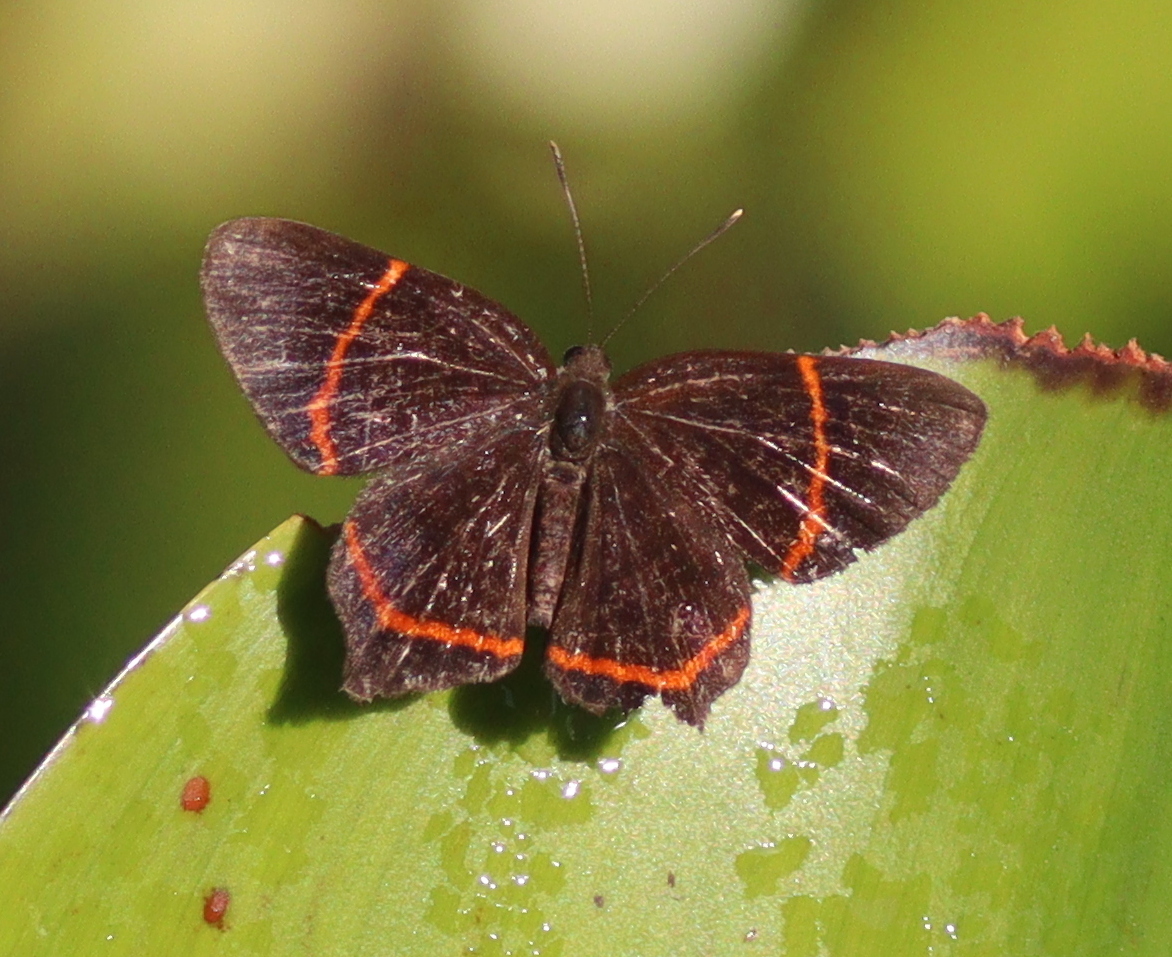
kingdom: Animalia
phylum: Arthropoda
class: Insecta
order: Lepidoptera
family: Riodinidae
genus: Riodina
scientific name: Riodina lysippus
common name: Lysippus metalmark
